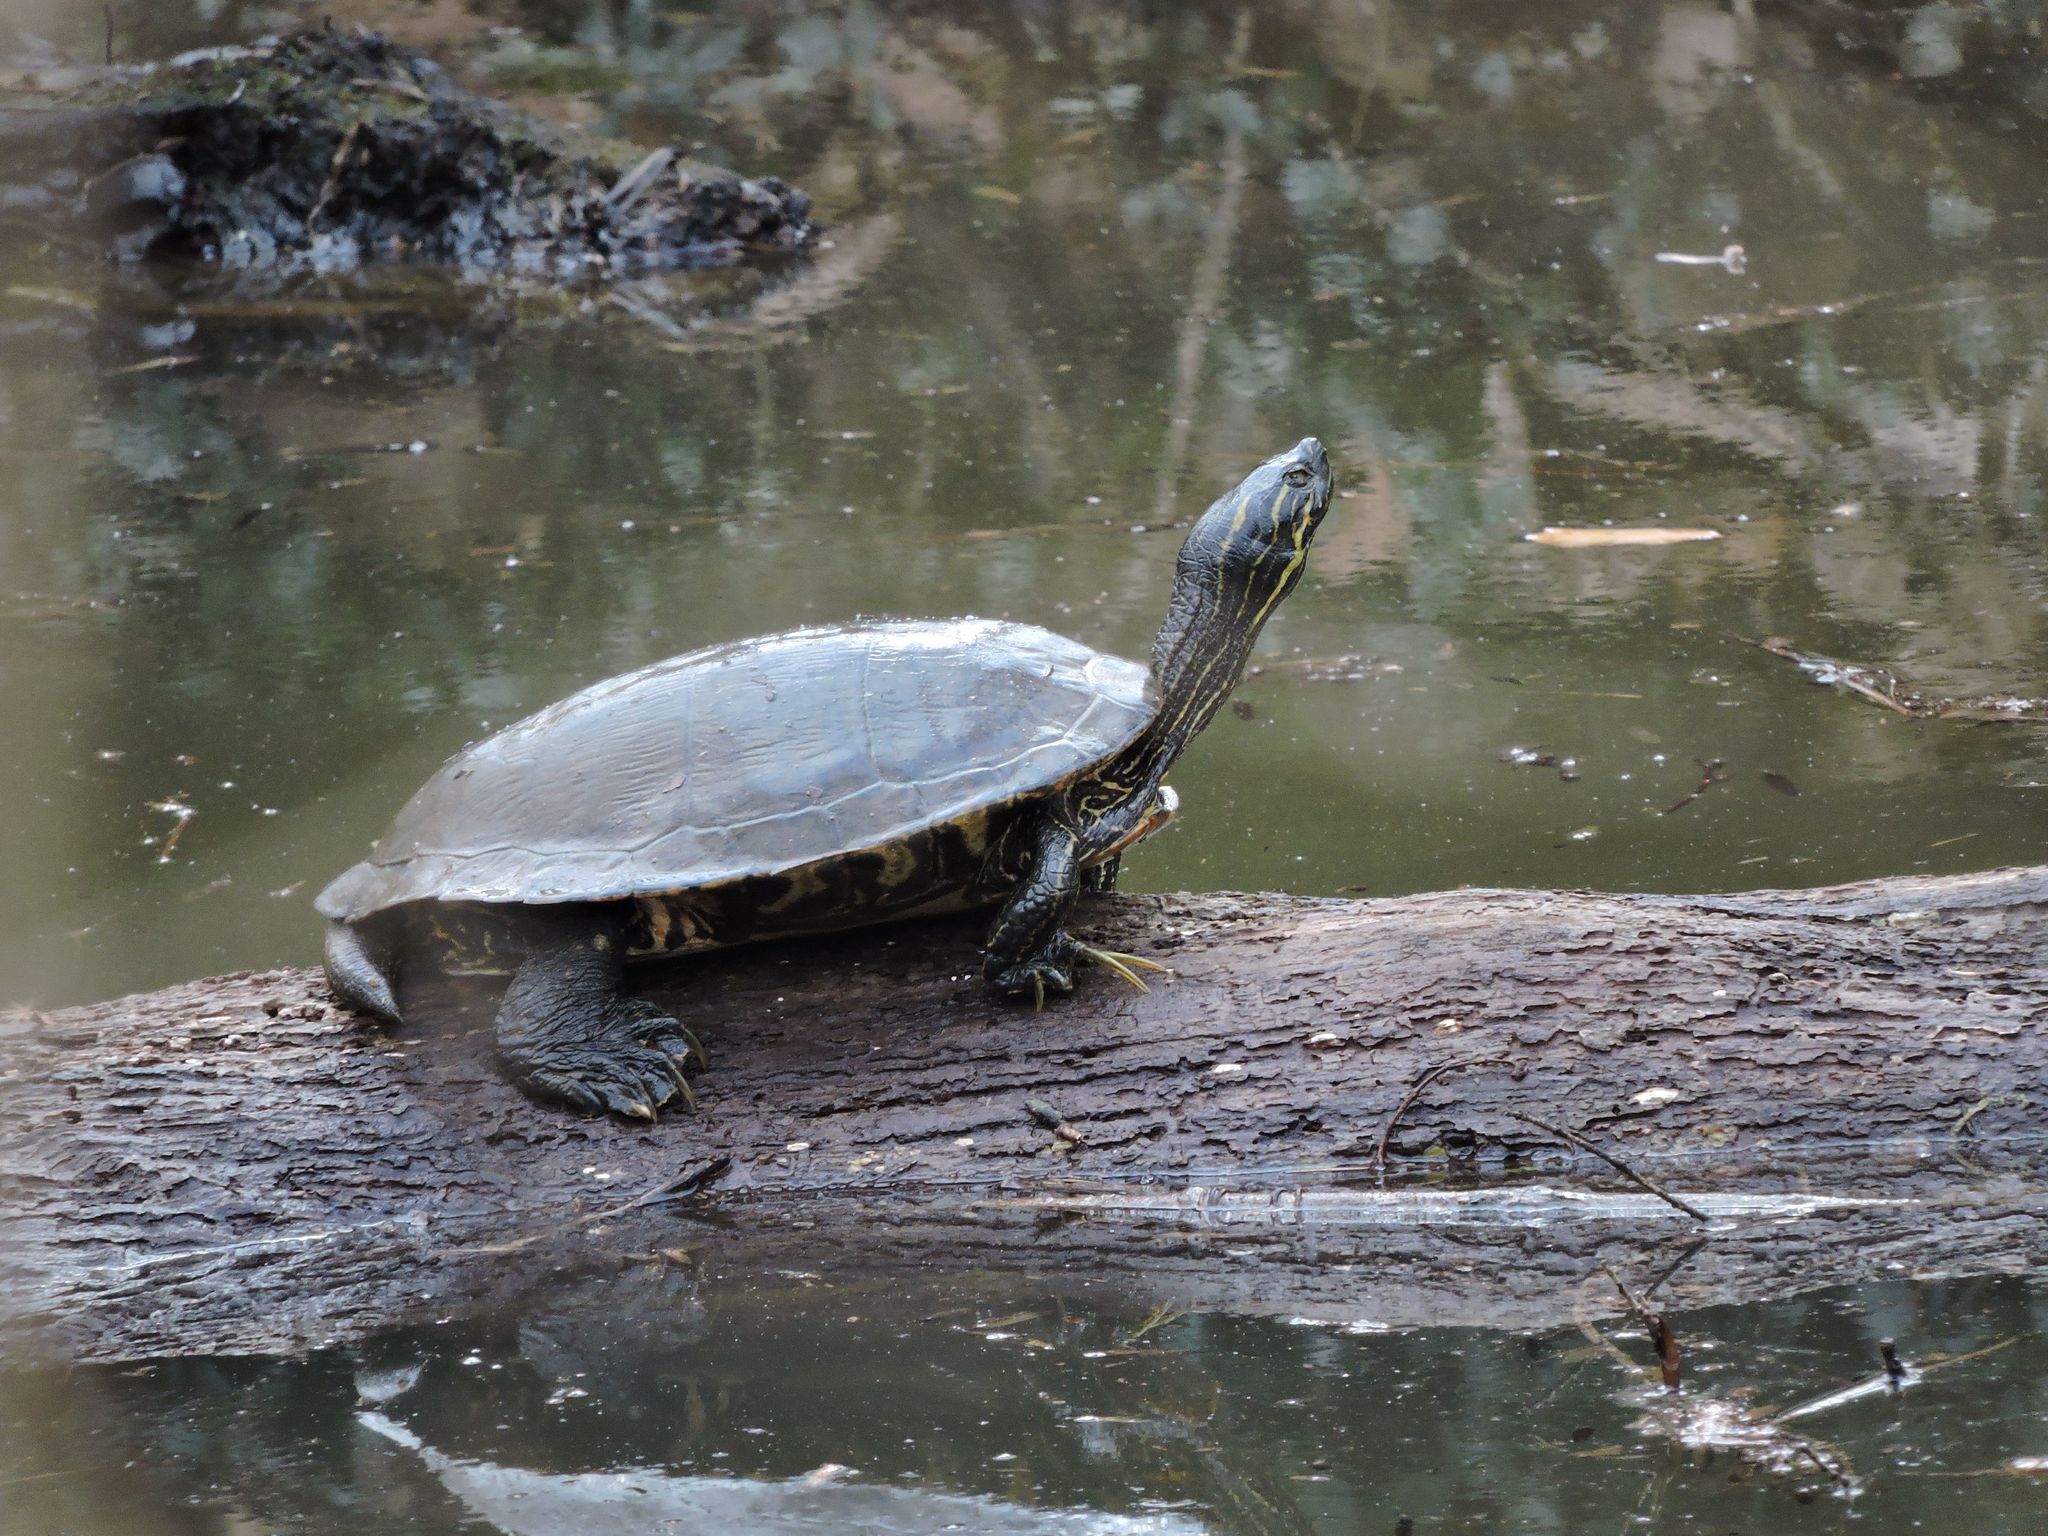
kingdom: Animalia
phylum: Chordata
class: Testudines
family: Emydidae
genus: Pseudemys
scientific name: Pseudemys concinna
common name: Eastern river cooter
